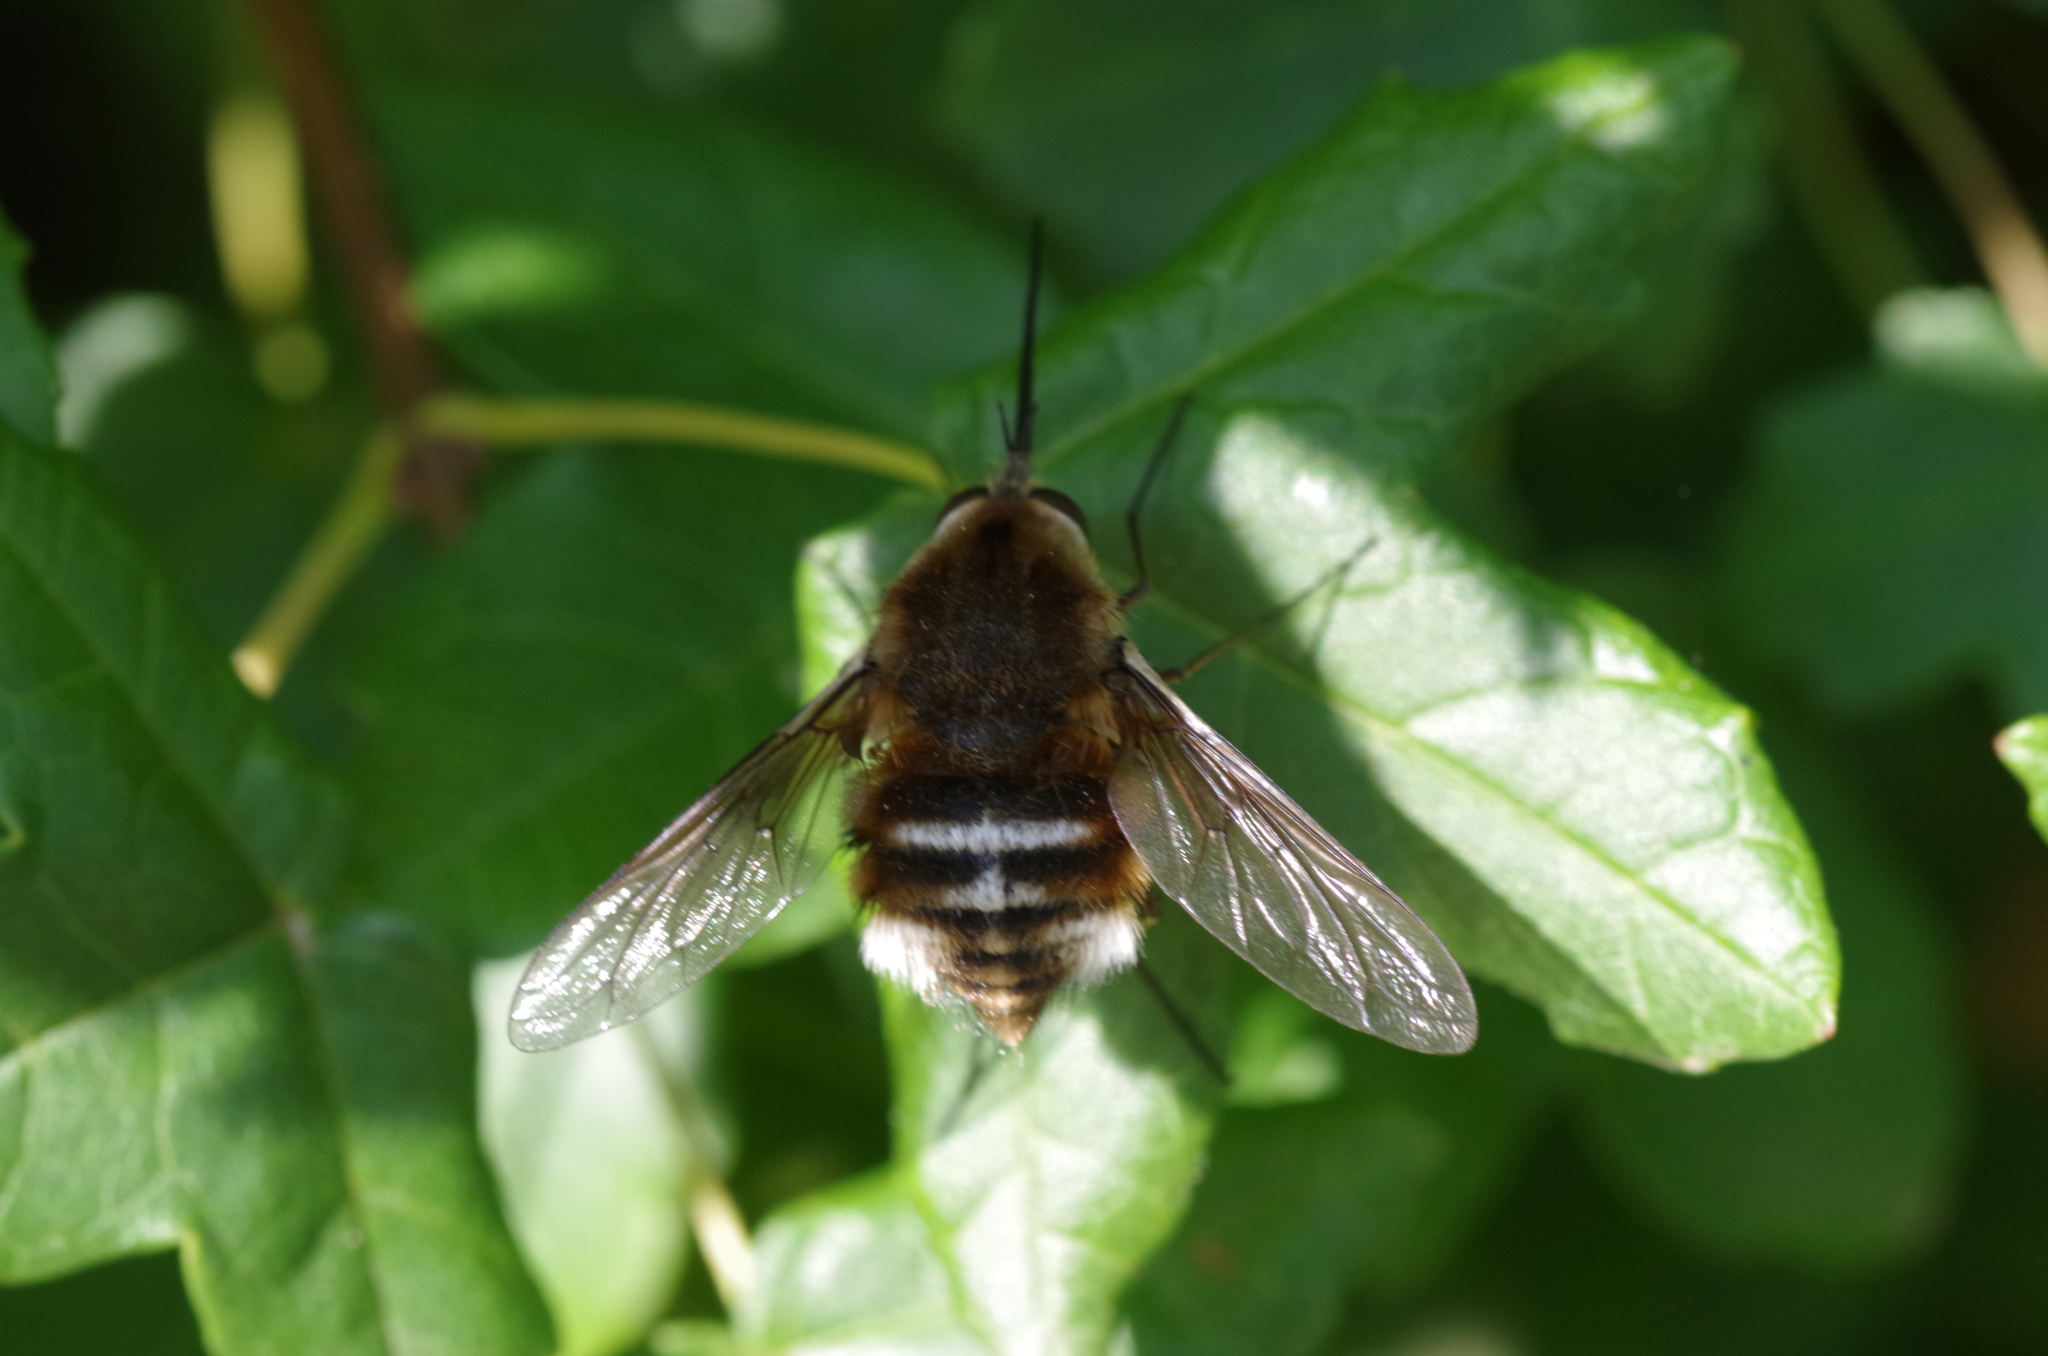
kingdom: Animalia
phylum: Arthropoda
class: Insecta
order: Diptera
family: Bombyliidae
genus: Bombylius
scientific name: Bombylius cruciatus
